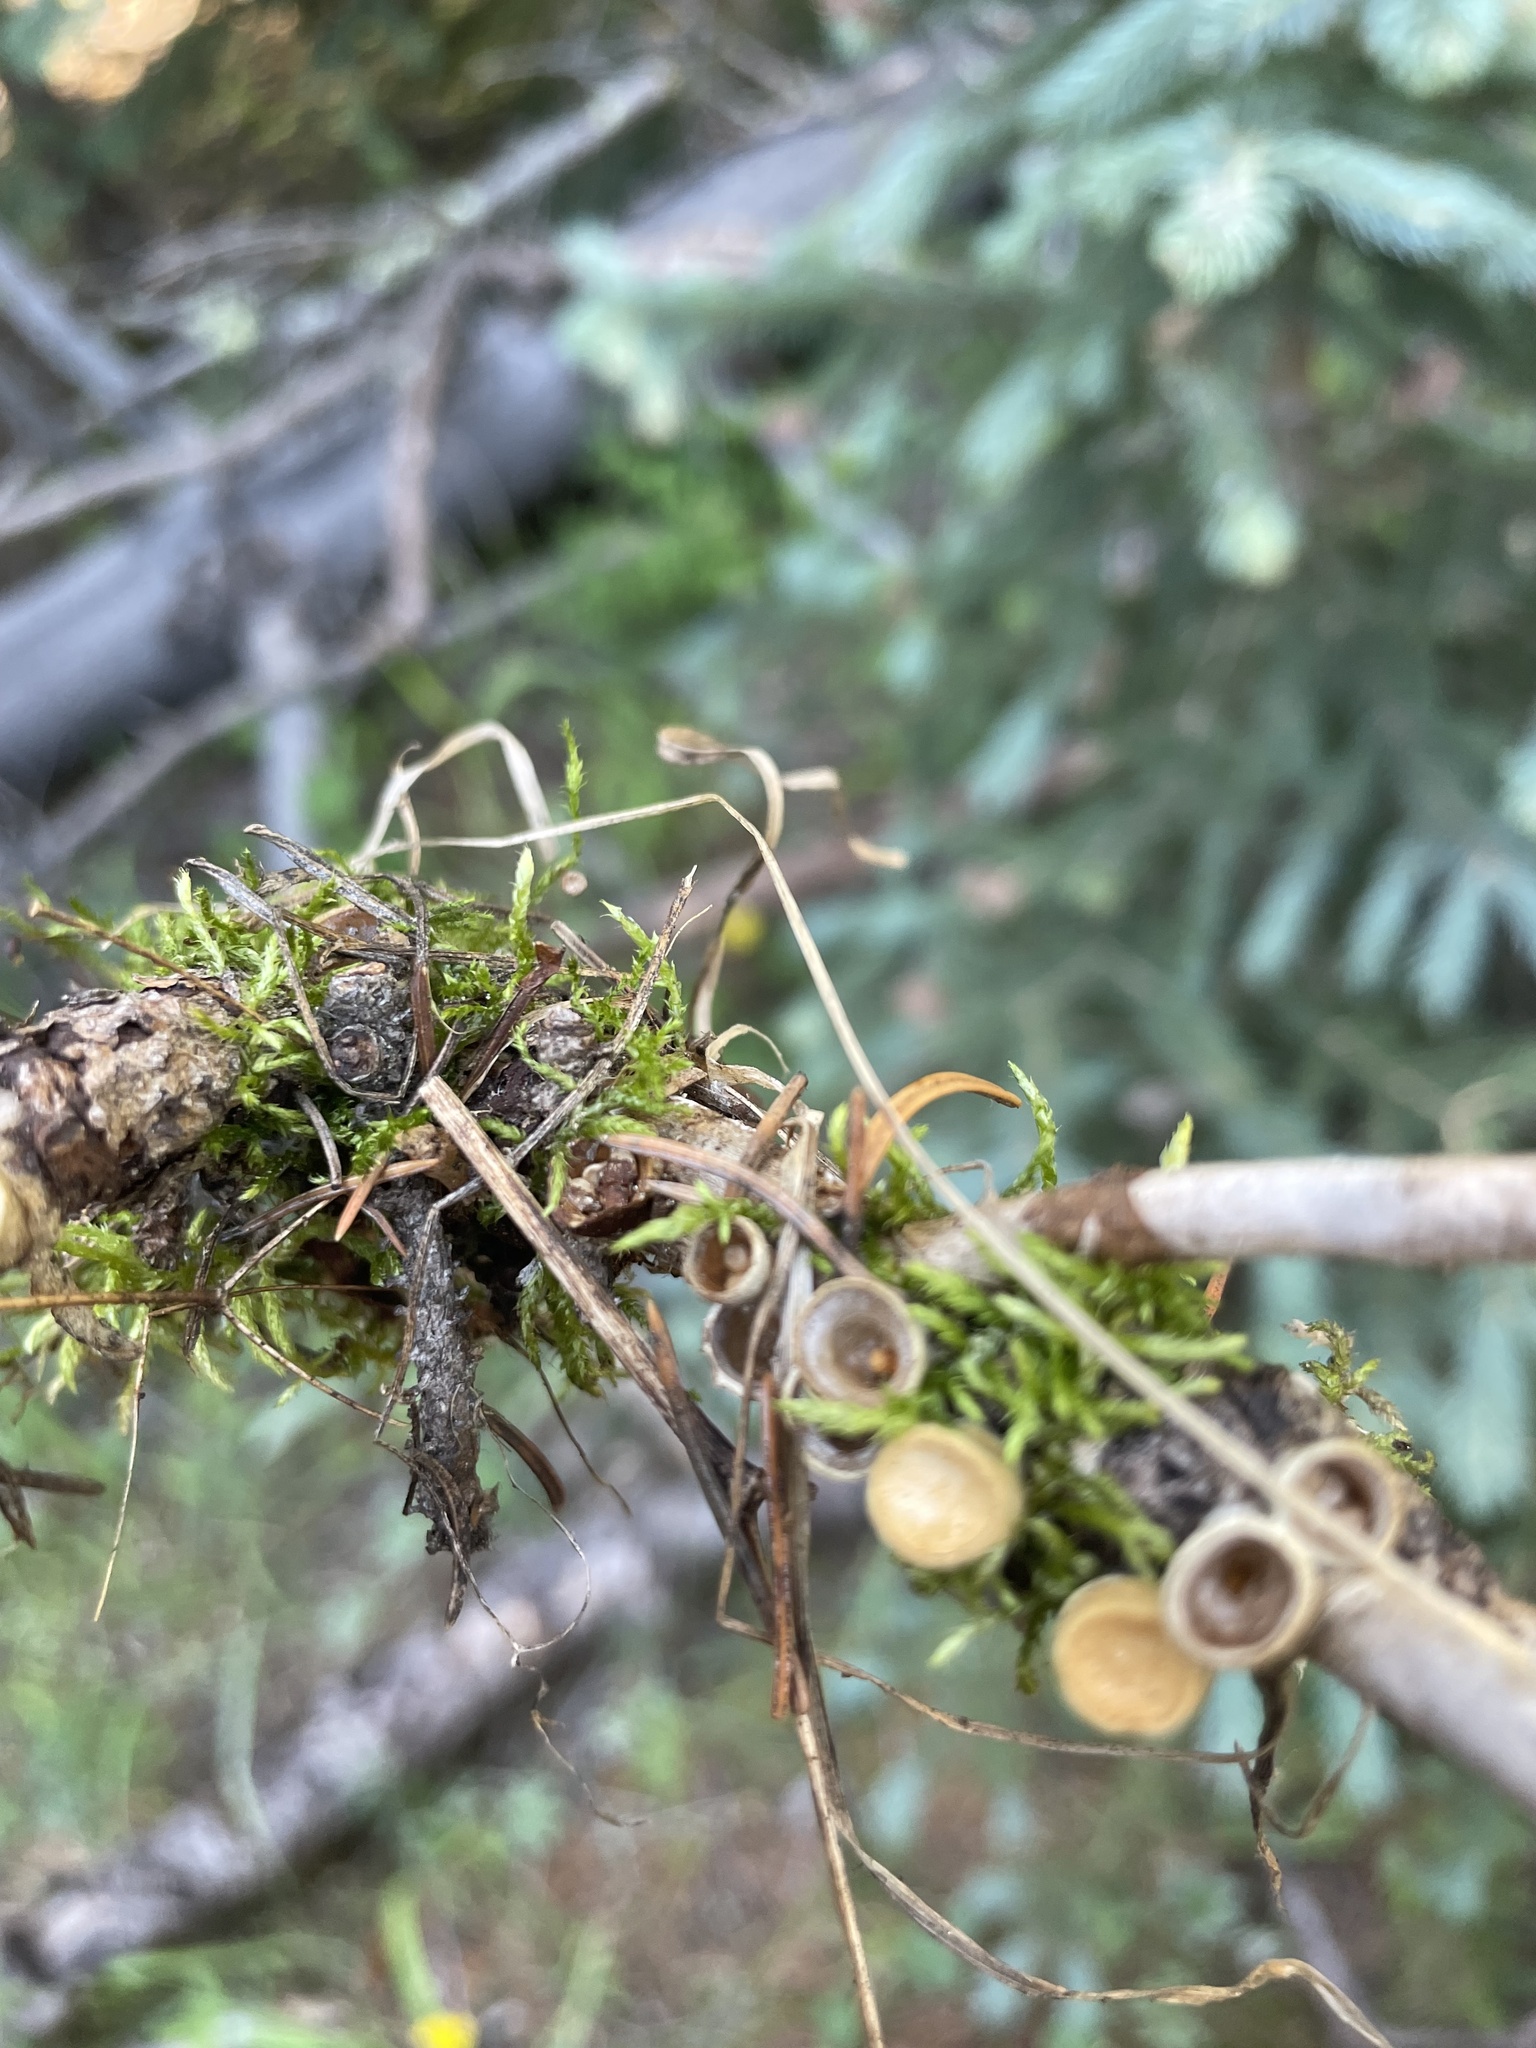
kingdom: Fungi
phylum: Basidiomycota
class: Agaricomycetes
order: Agaricales
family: Nidulariaceae
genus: Crucibulum
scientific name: Crucibulum cyathiforme
